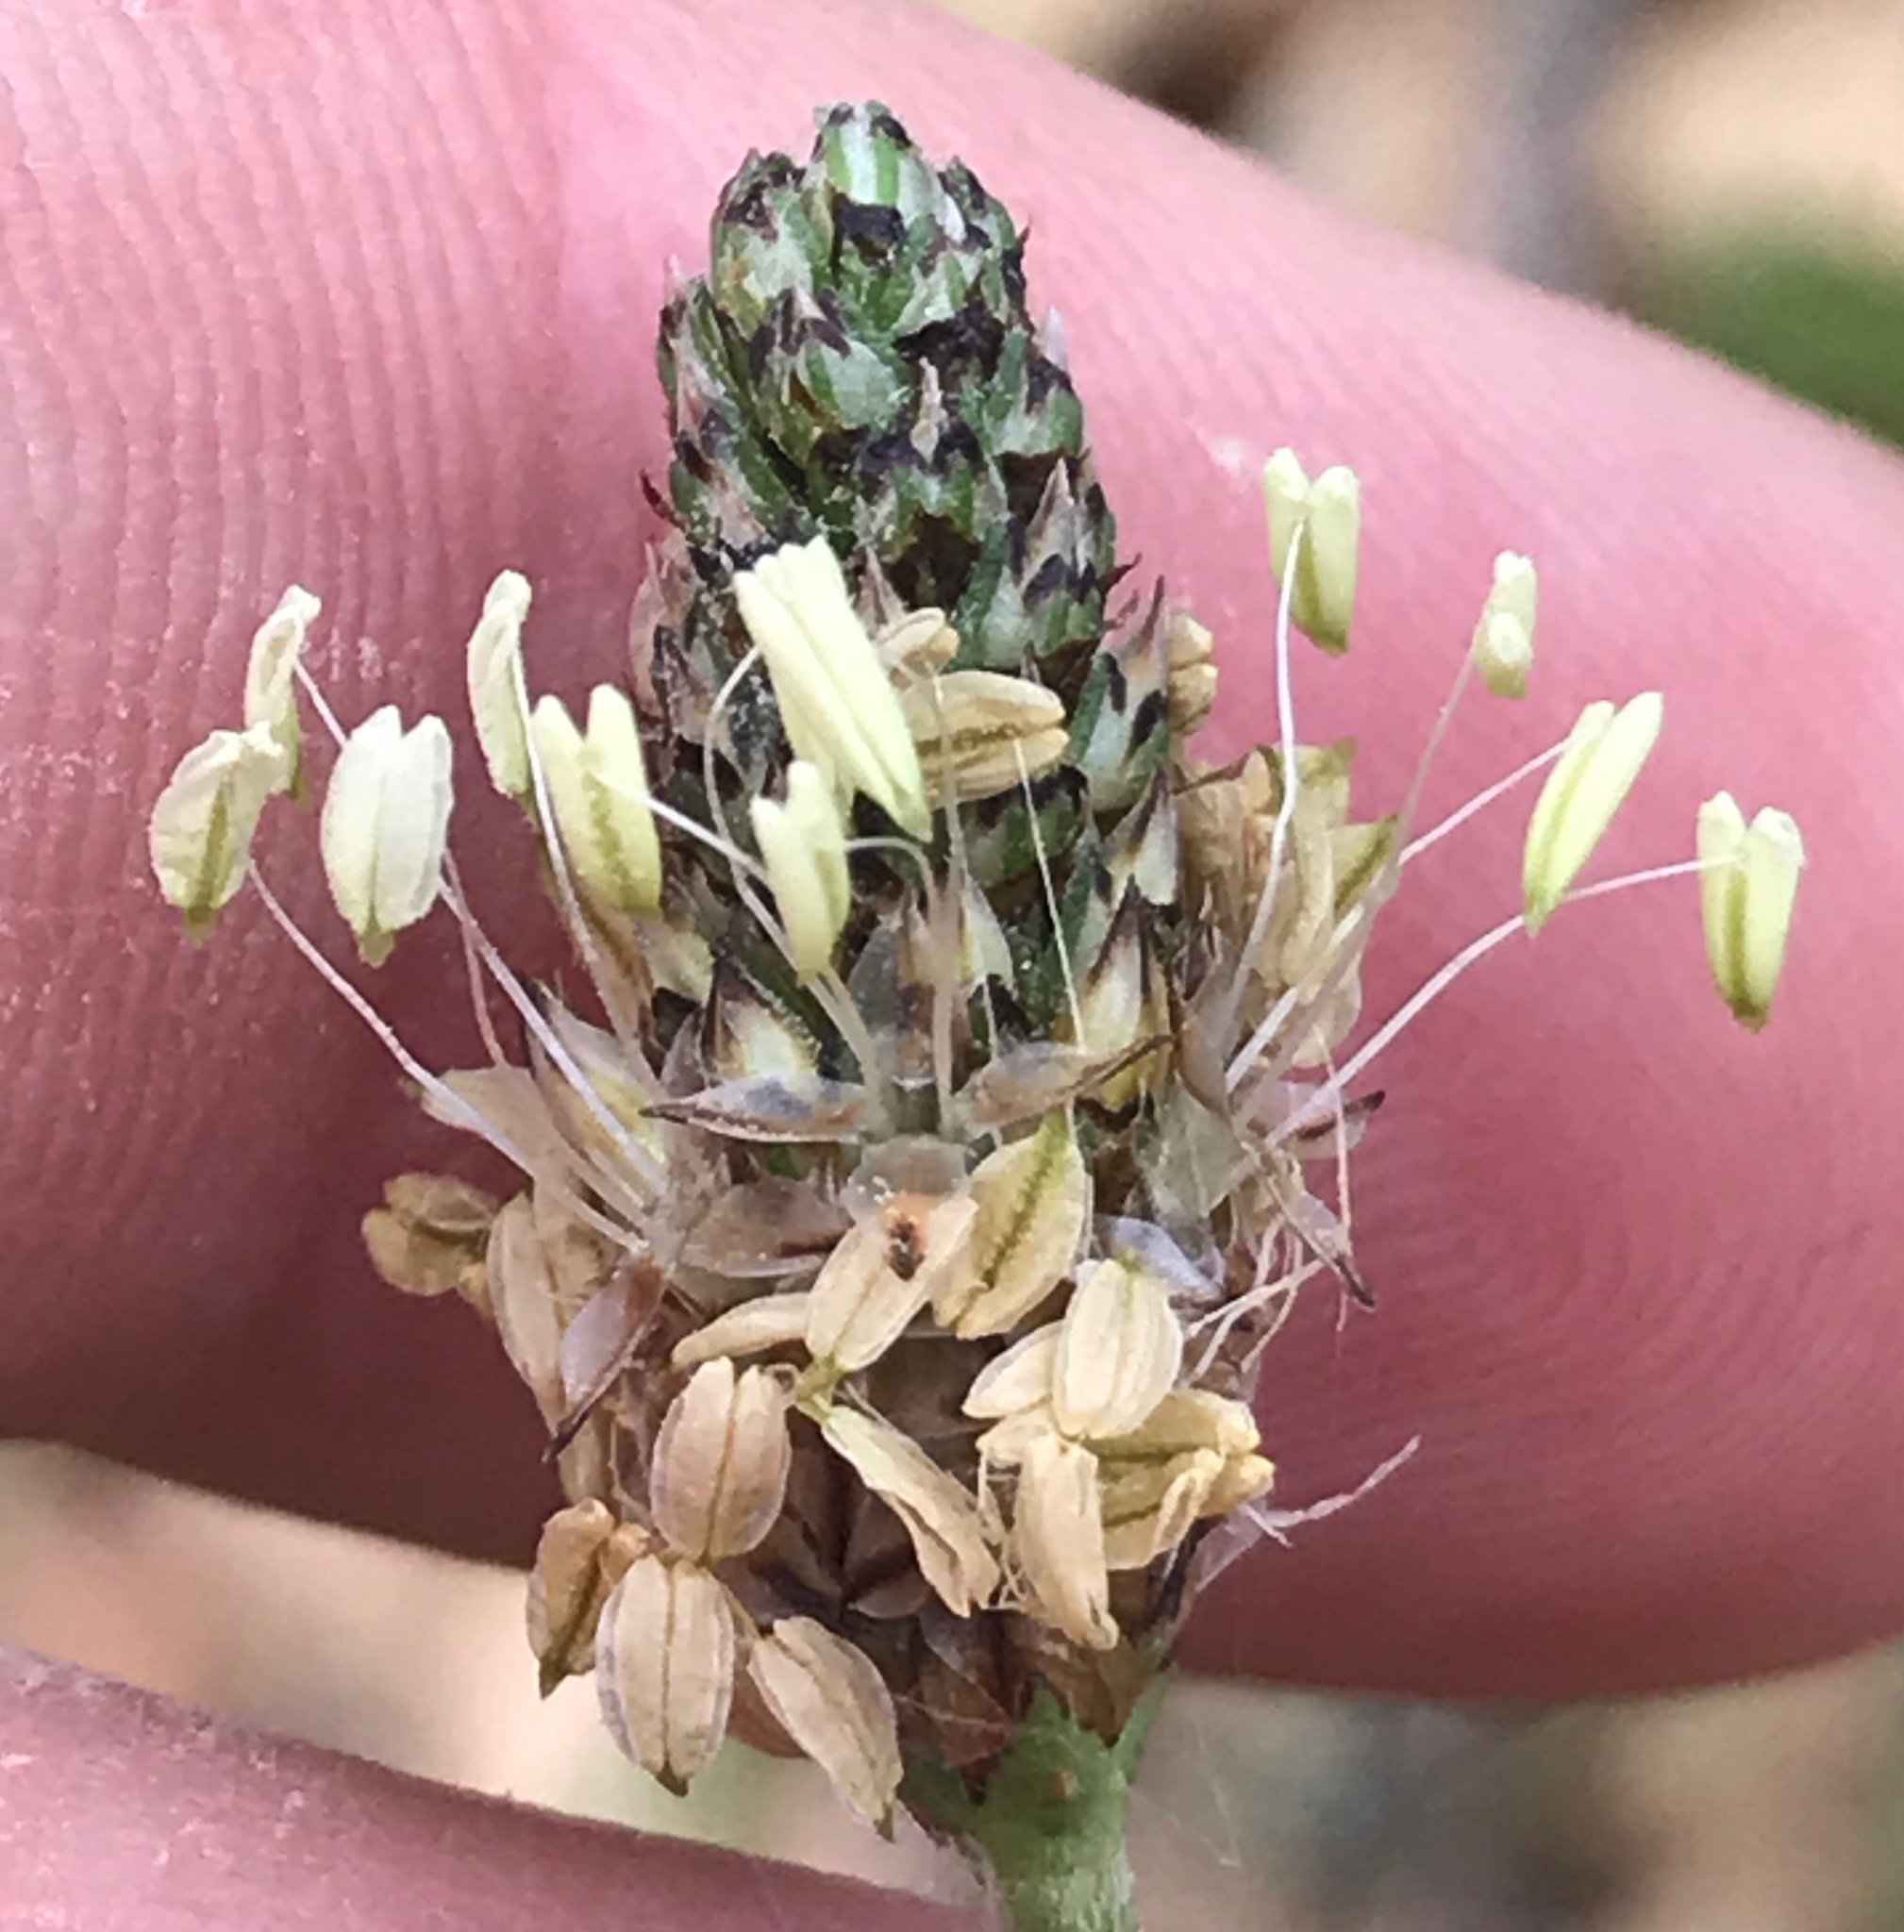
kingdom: Plantae
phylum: Tracheophyta
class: Magnoliopsida
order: Lamiales
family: Plantaginaceae
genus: Plantago
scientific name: Plantago lanceolata
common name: Ribwort plantain
